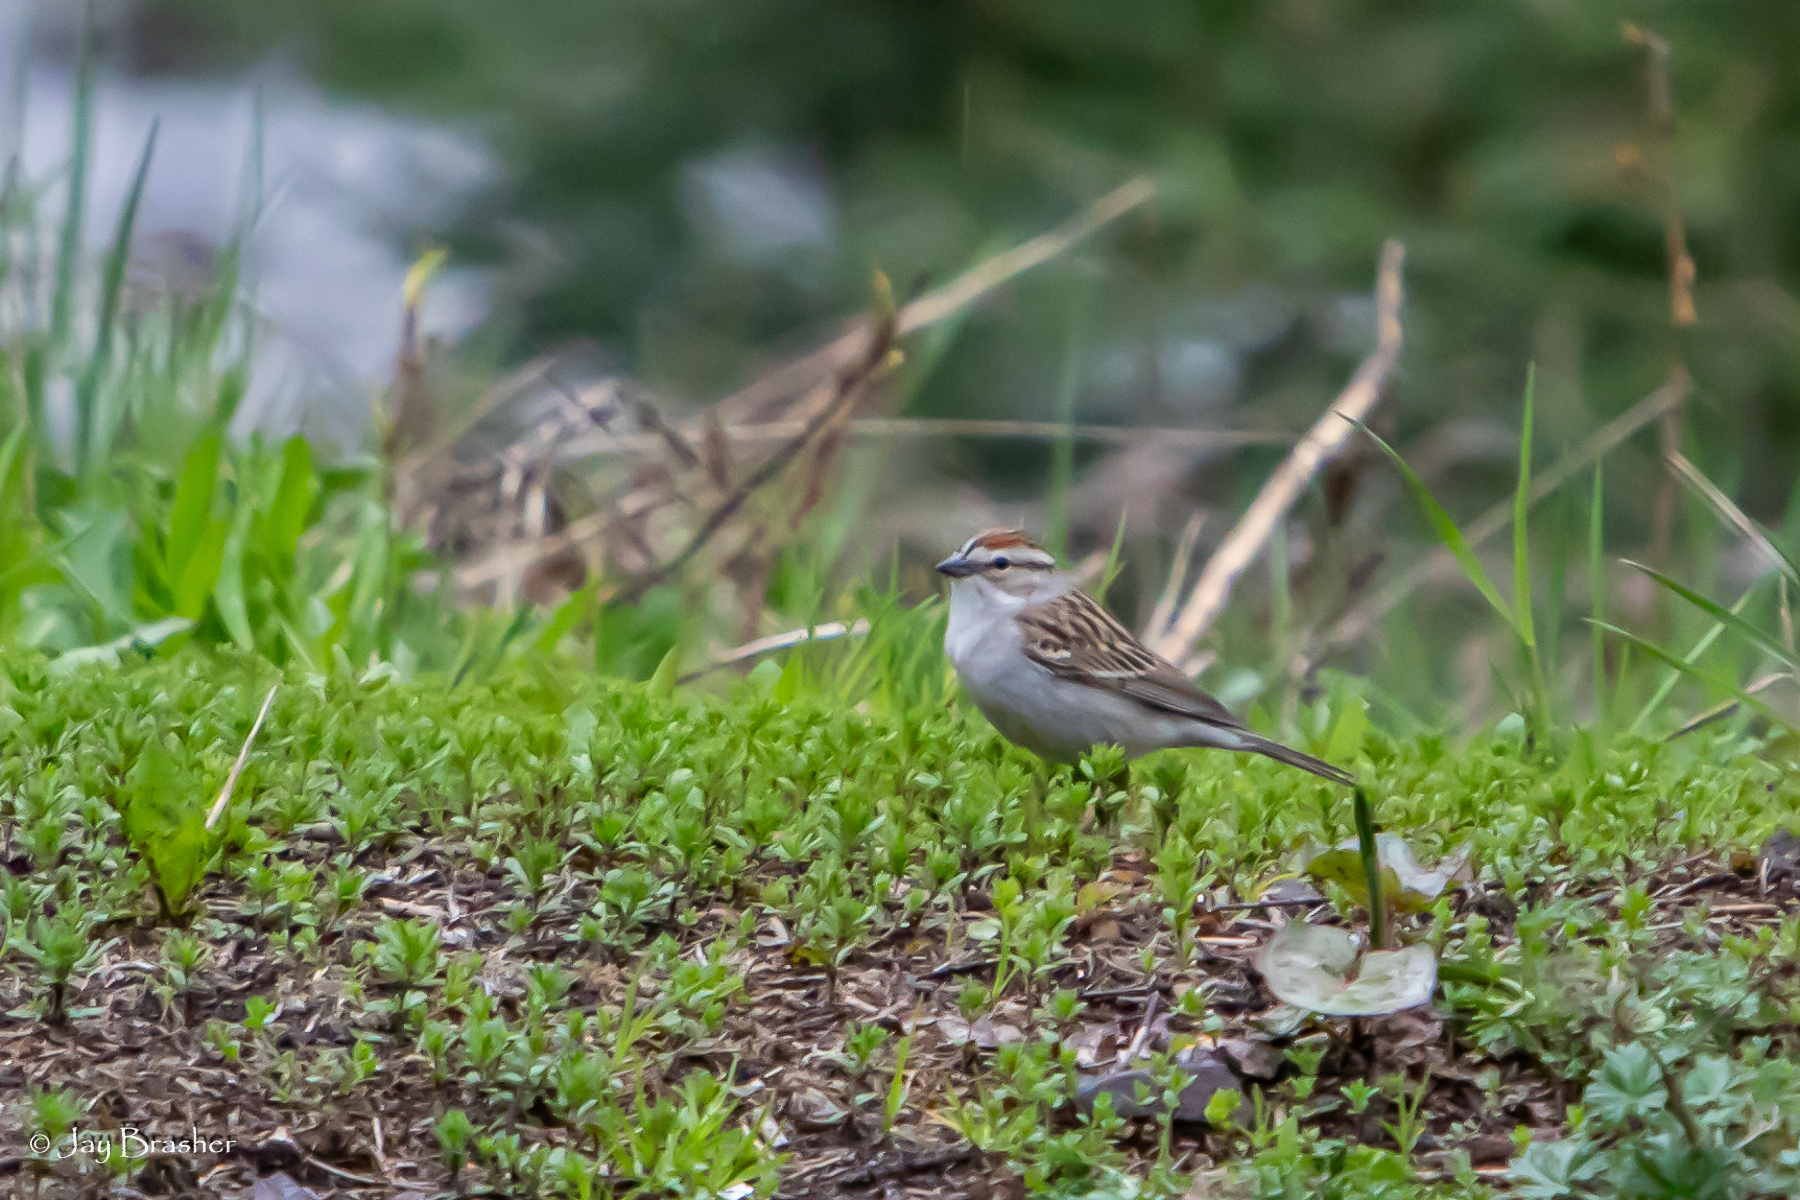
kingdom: Animalia
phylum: Chordata
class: Aves
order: Passeriformes
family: Passerellidae
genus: Spizella
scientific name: Spizella passerina
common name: Chipping sparrow
